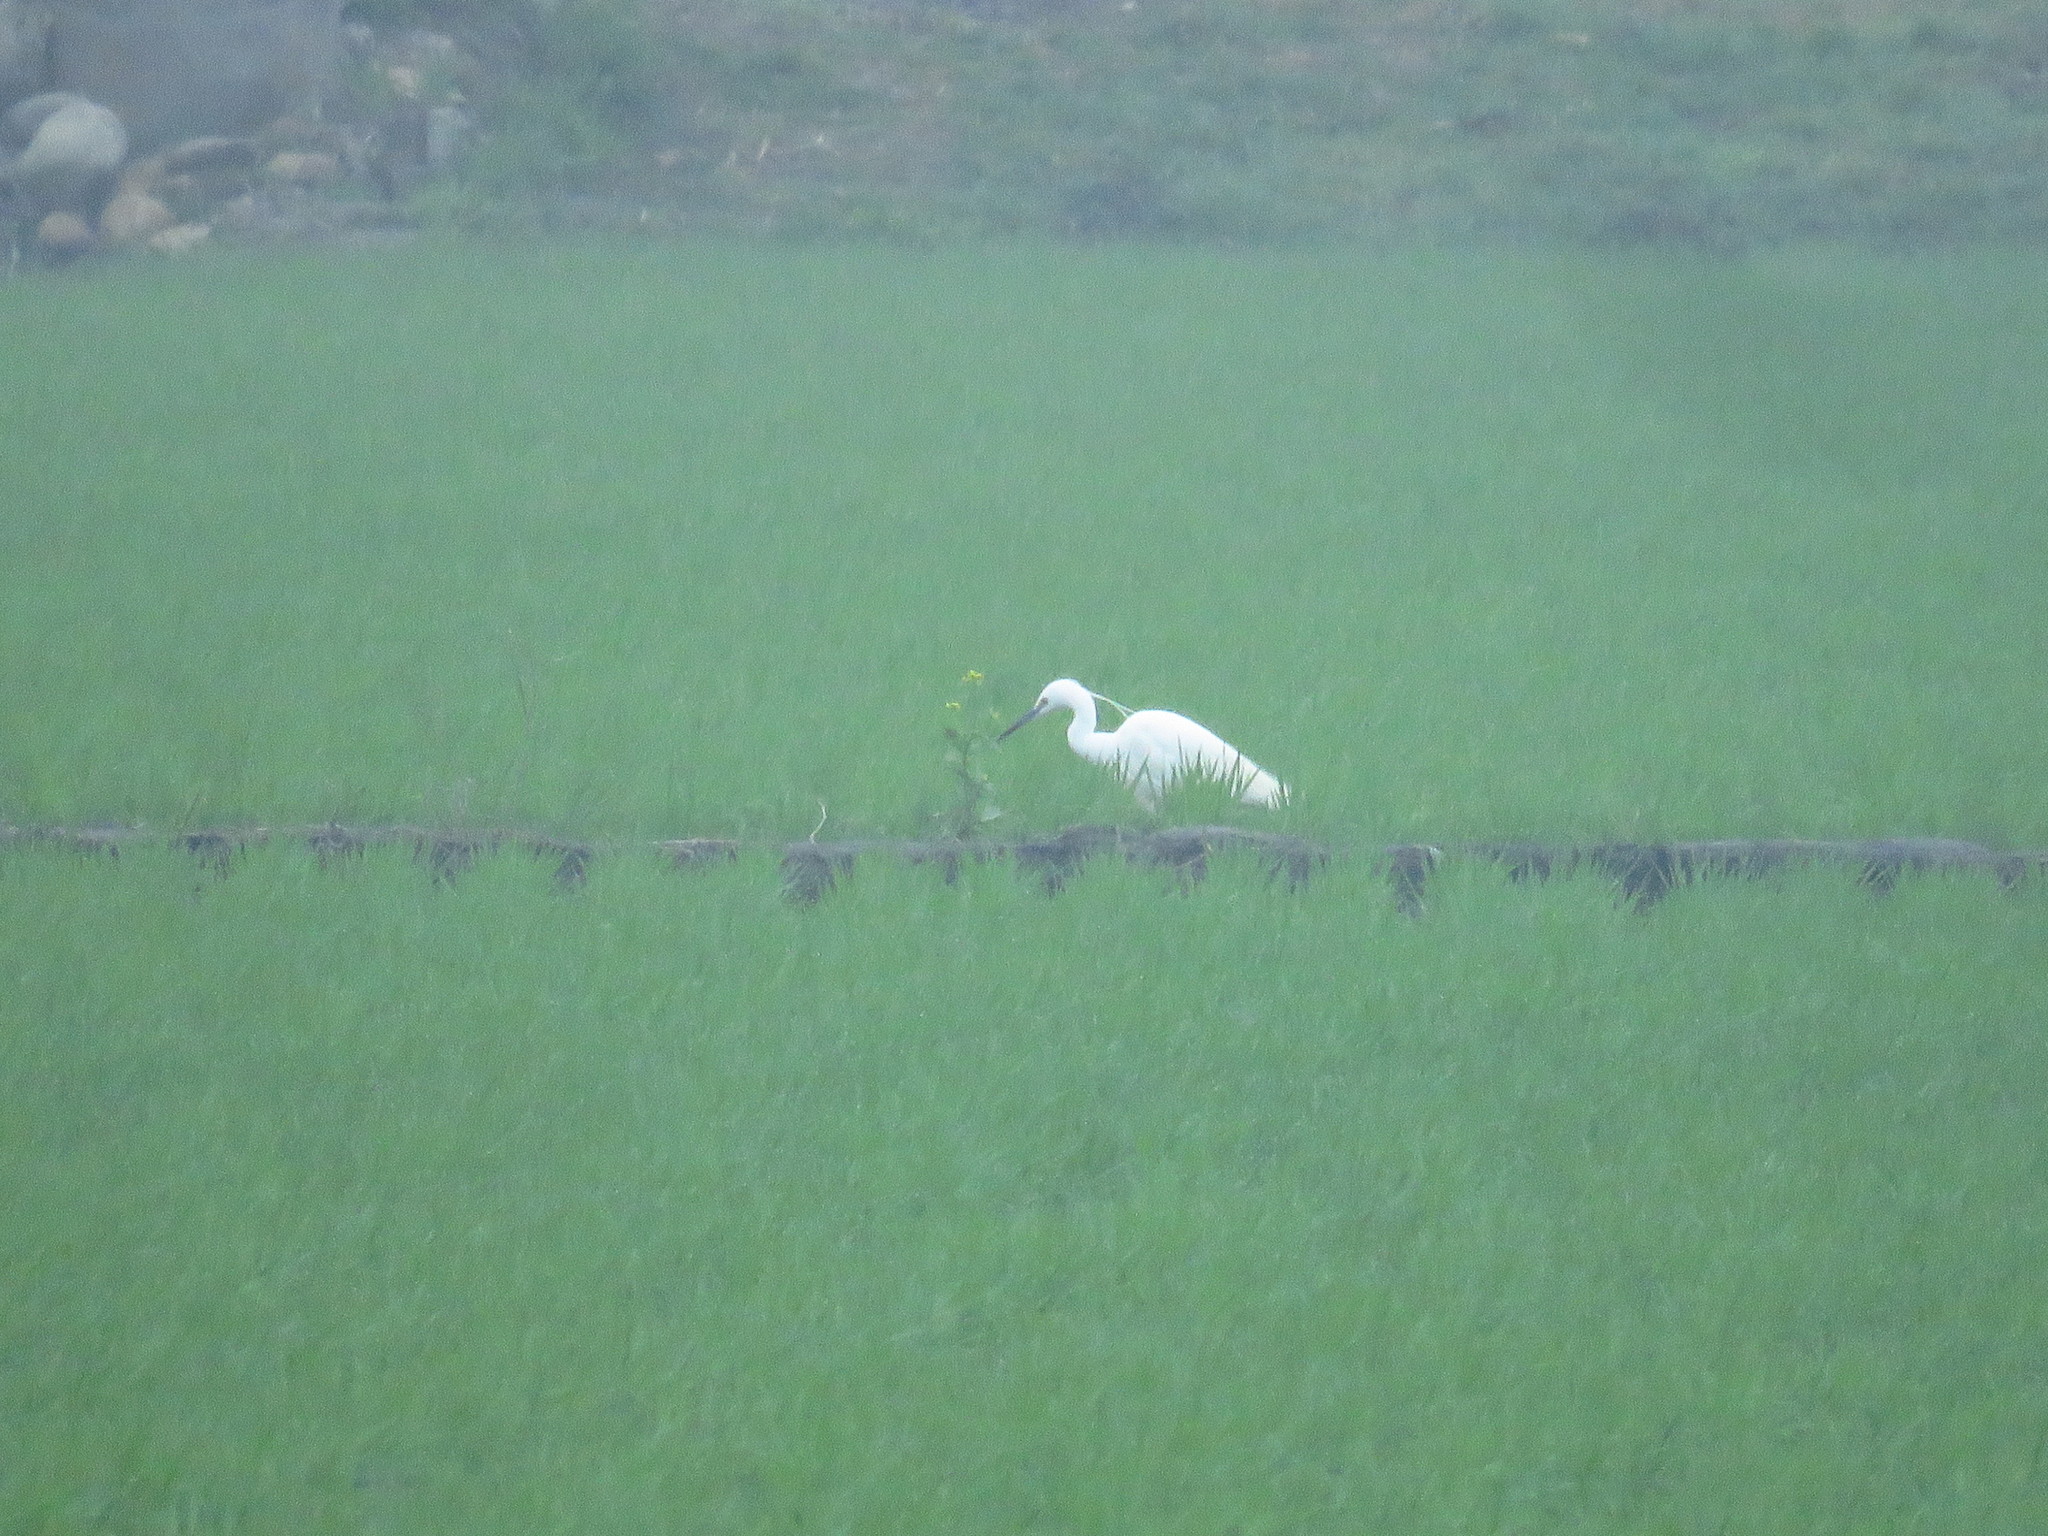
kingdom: Animalia
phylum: Chordata
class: Aves
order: Pelecaniformes
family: Ardeidae
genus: Egretta
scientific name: Egretta garzetta
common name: Little egret
